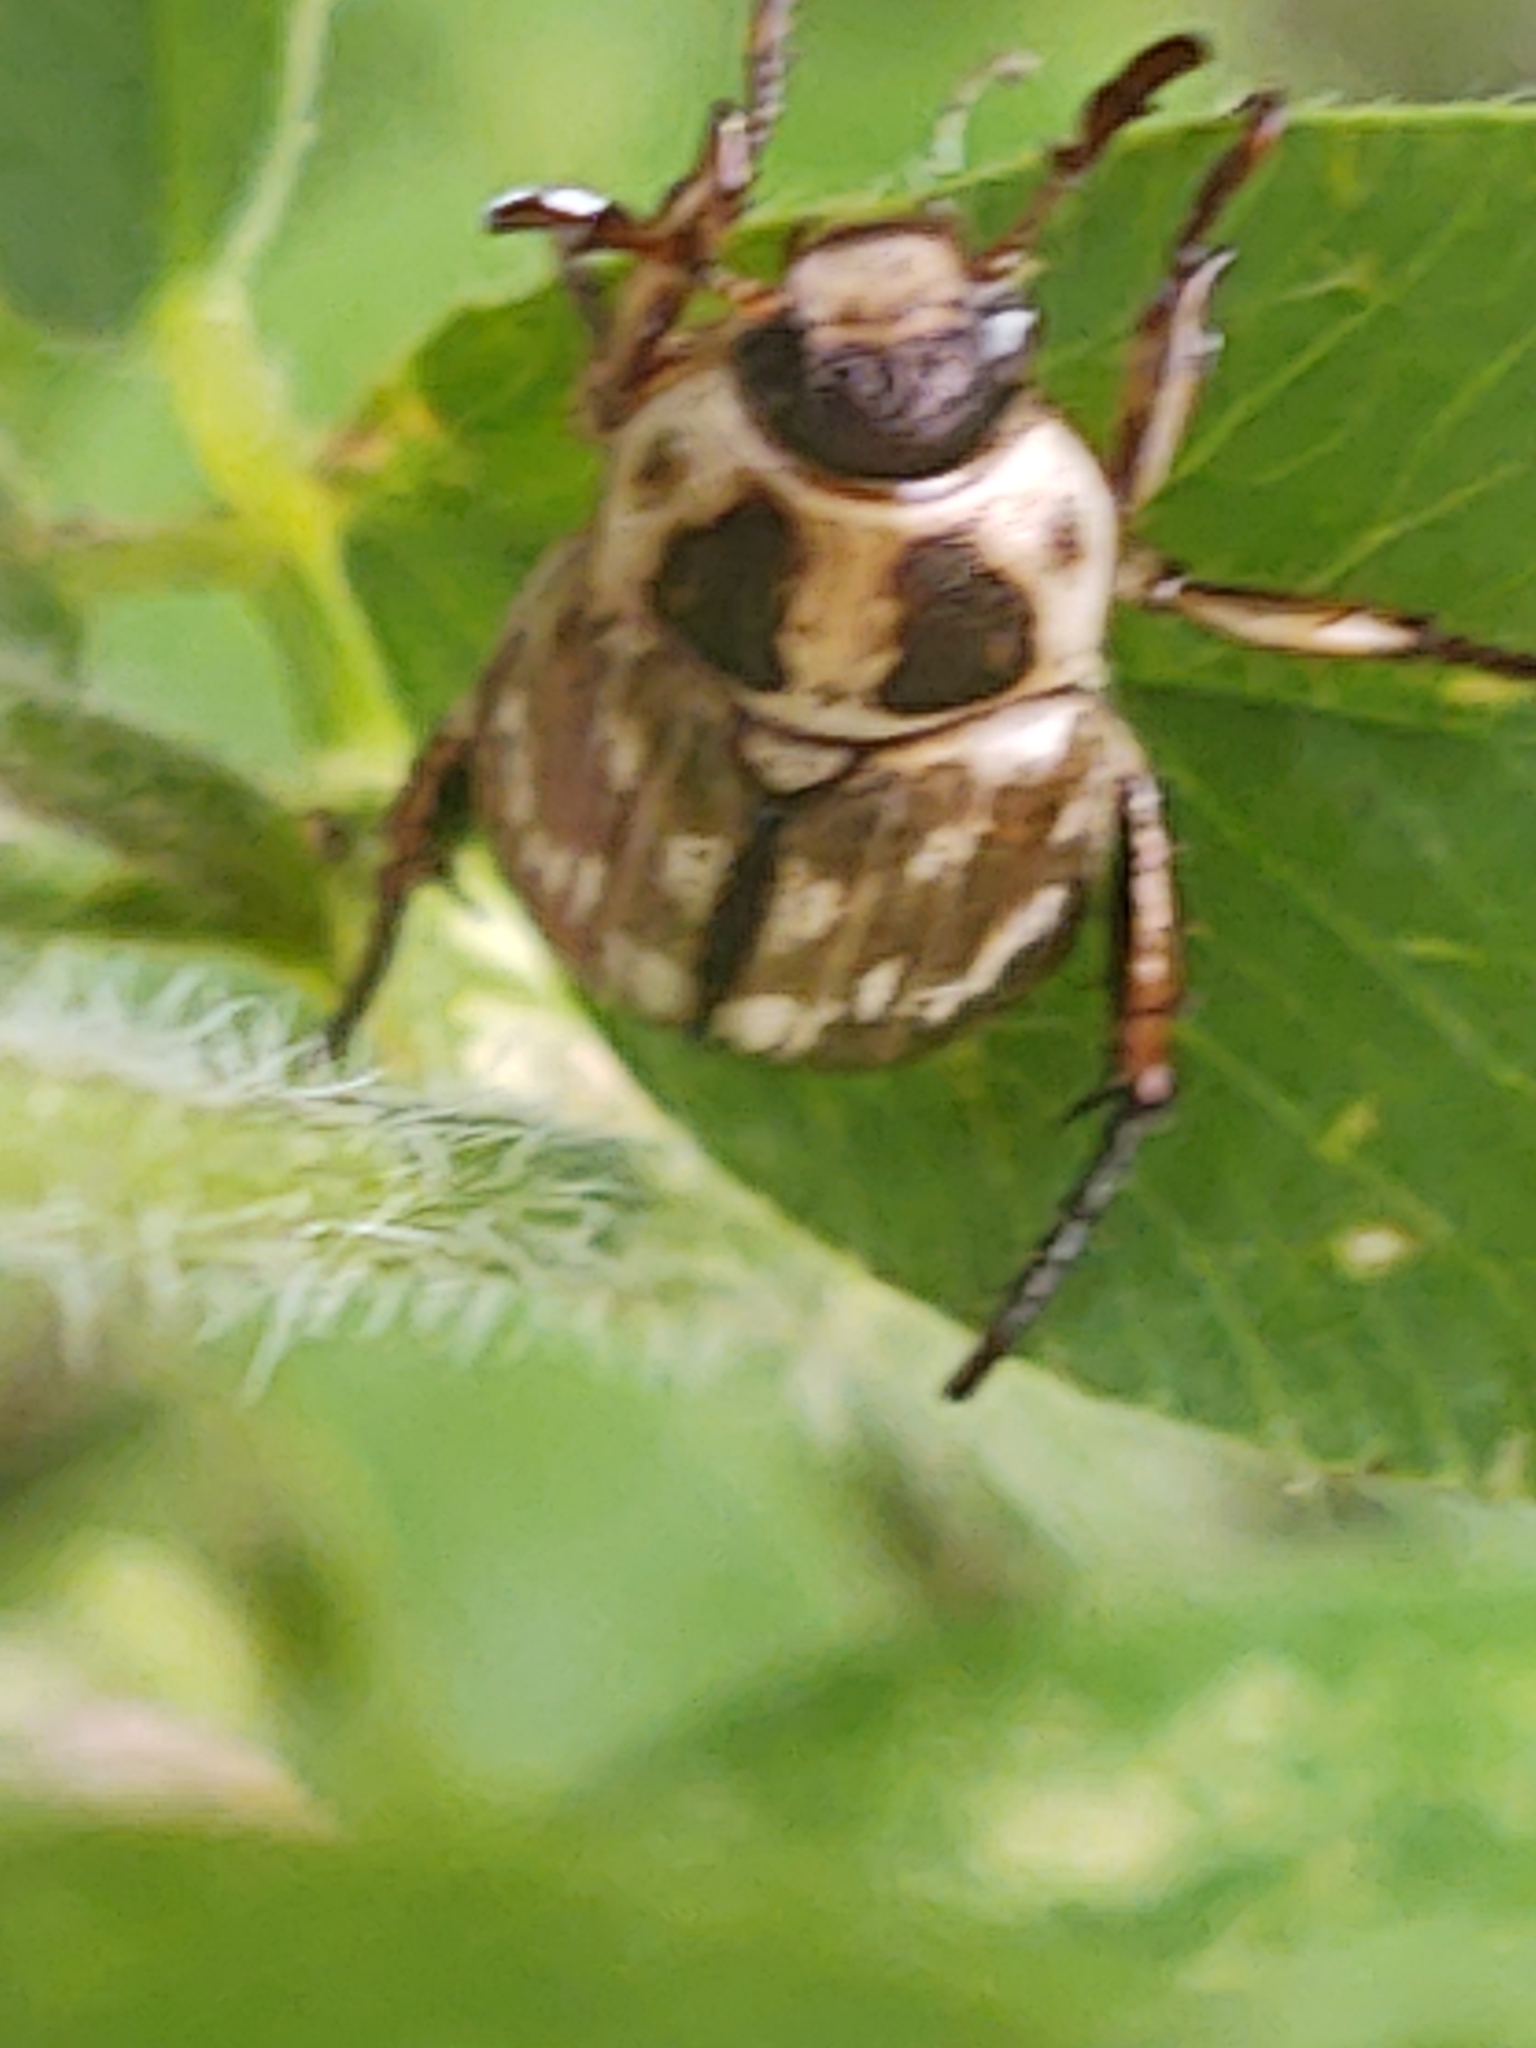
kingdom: Animalia
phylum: Arthropoda
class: Insecta
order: Coleoptera
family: Scarabaeidae
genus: Exomala
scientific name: Exomala orientalis
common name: Oriental beetle
